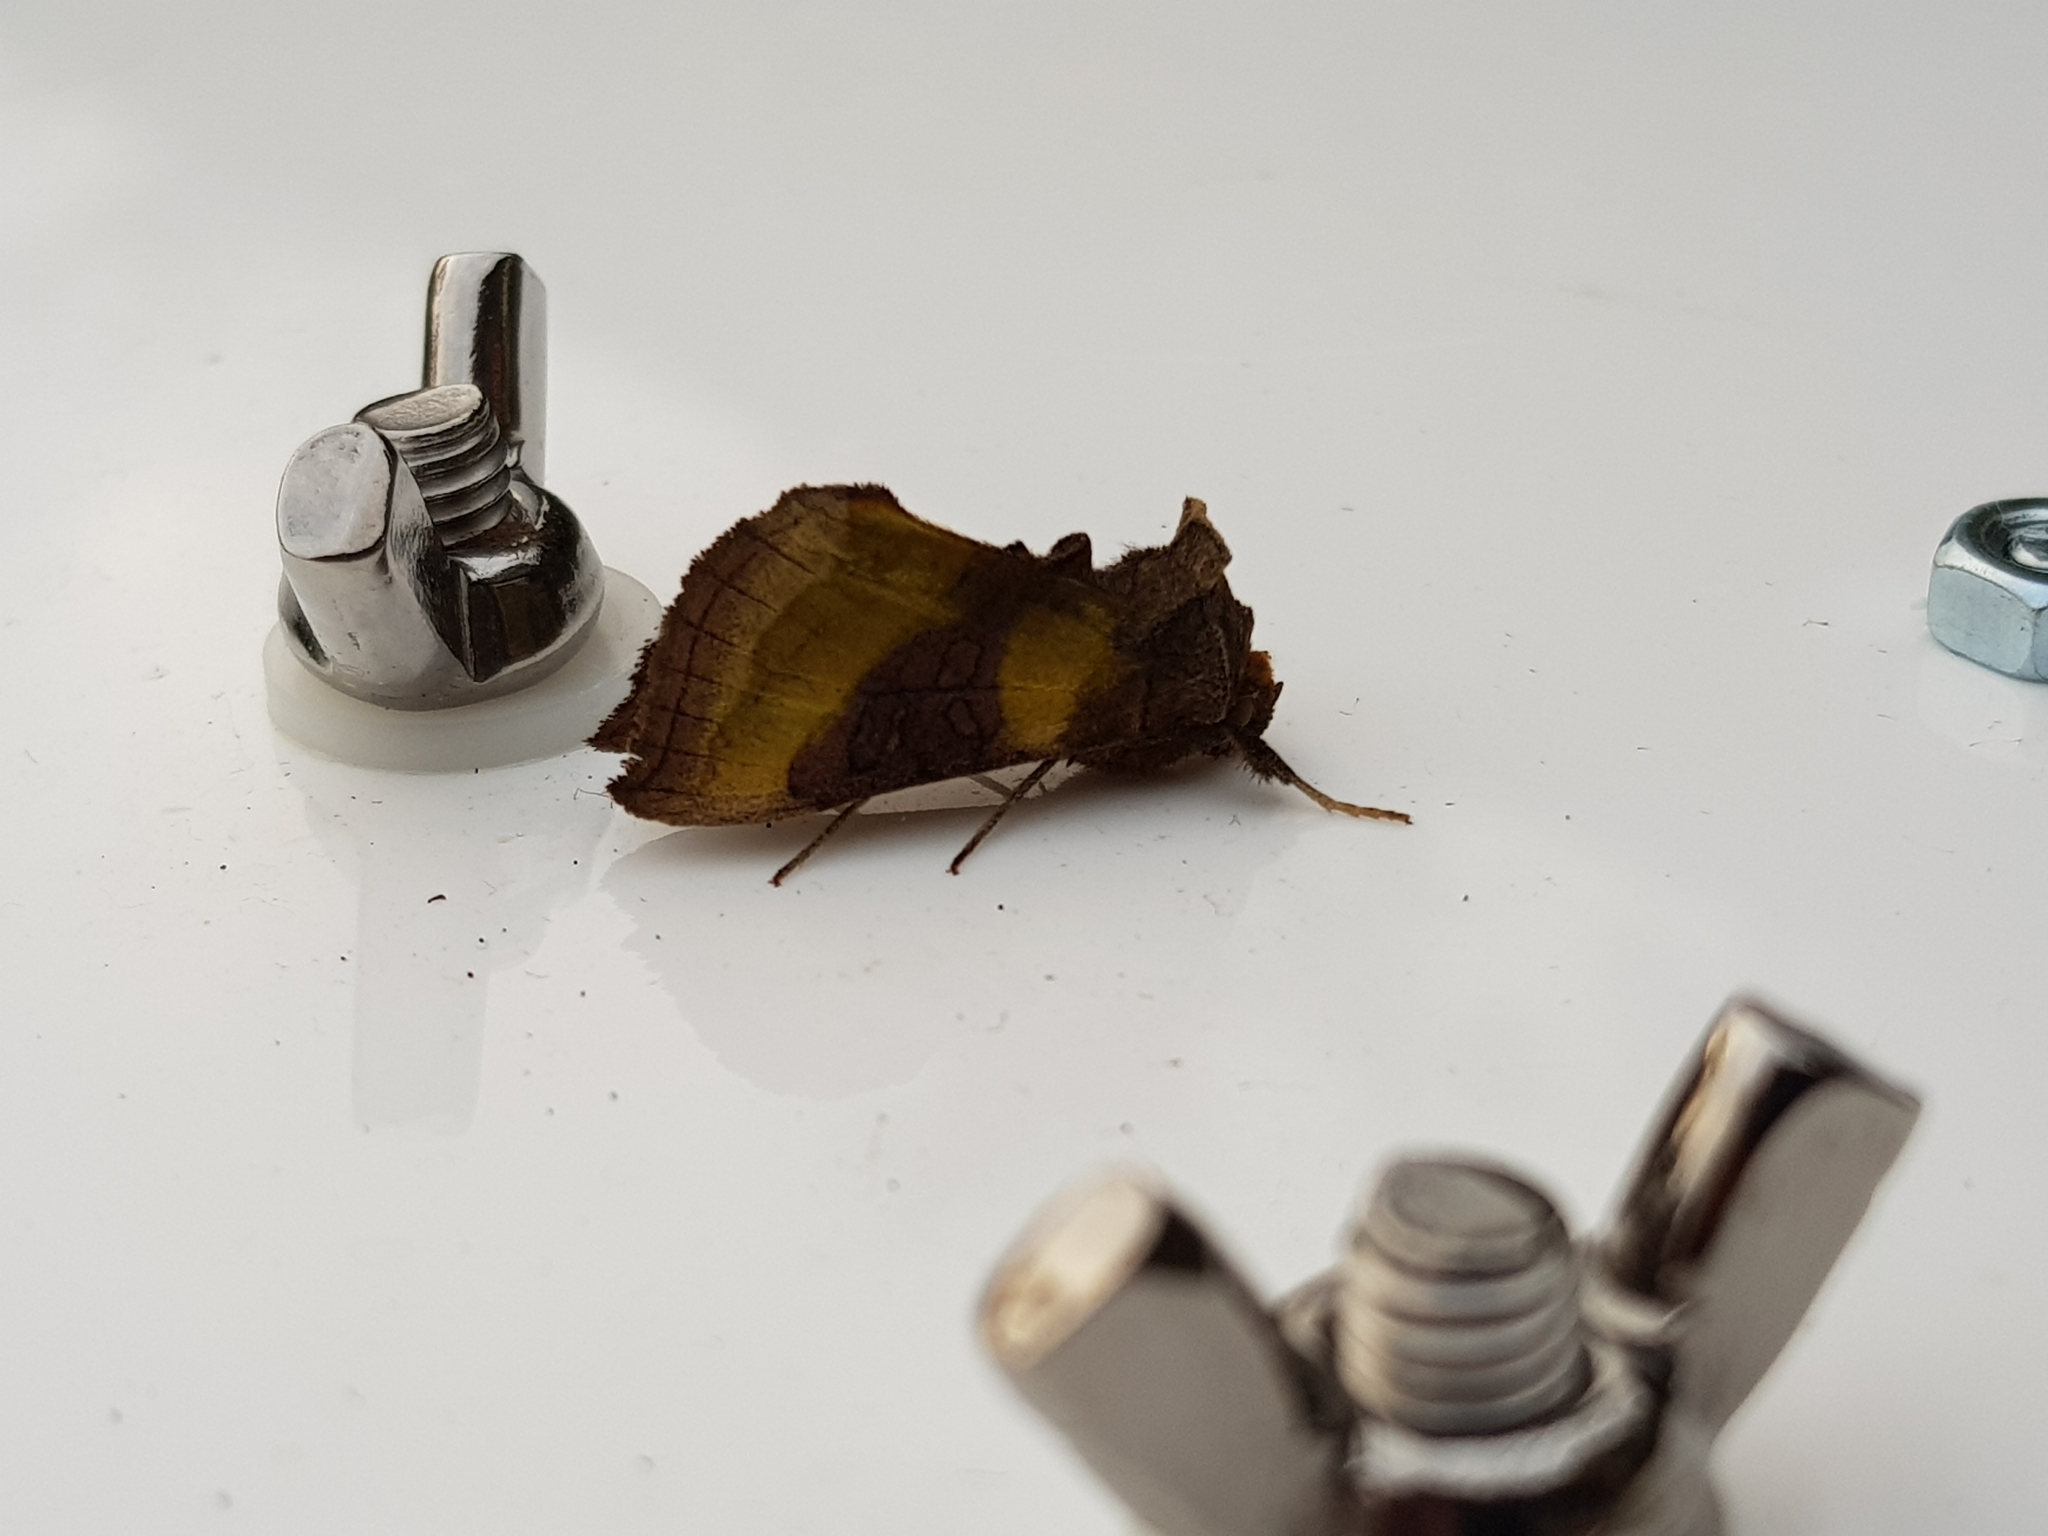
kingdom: Animalia
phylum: Arthropoda
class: Insecta
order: Lepidoptera
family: Noctuidae
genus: Diachrysia
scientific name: Diachrysia chrysitis
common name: Burnished brass
